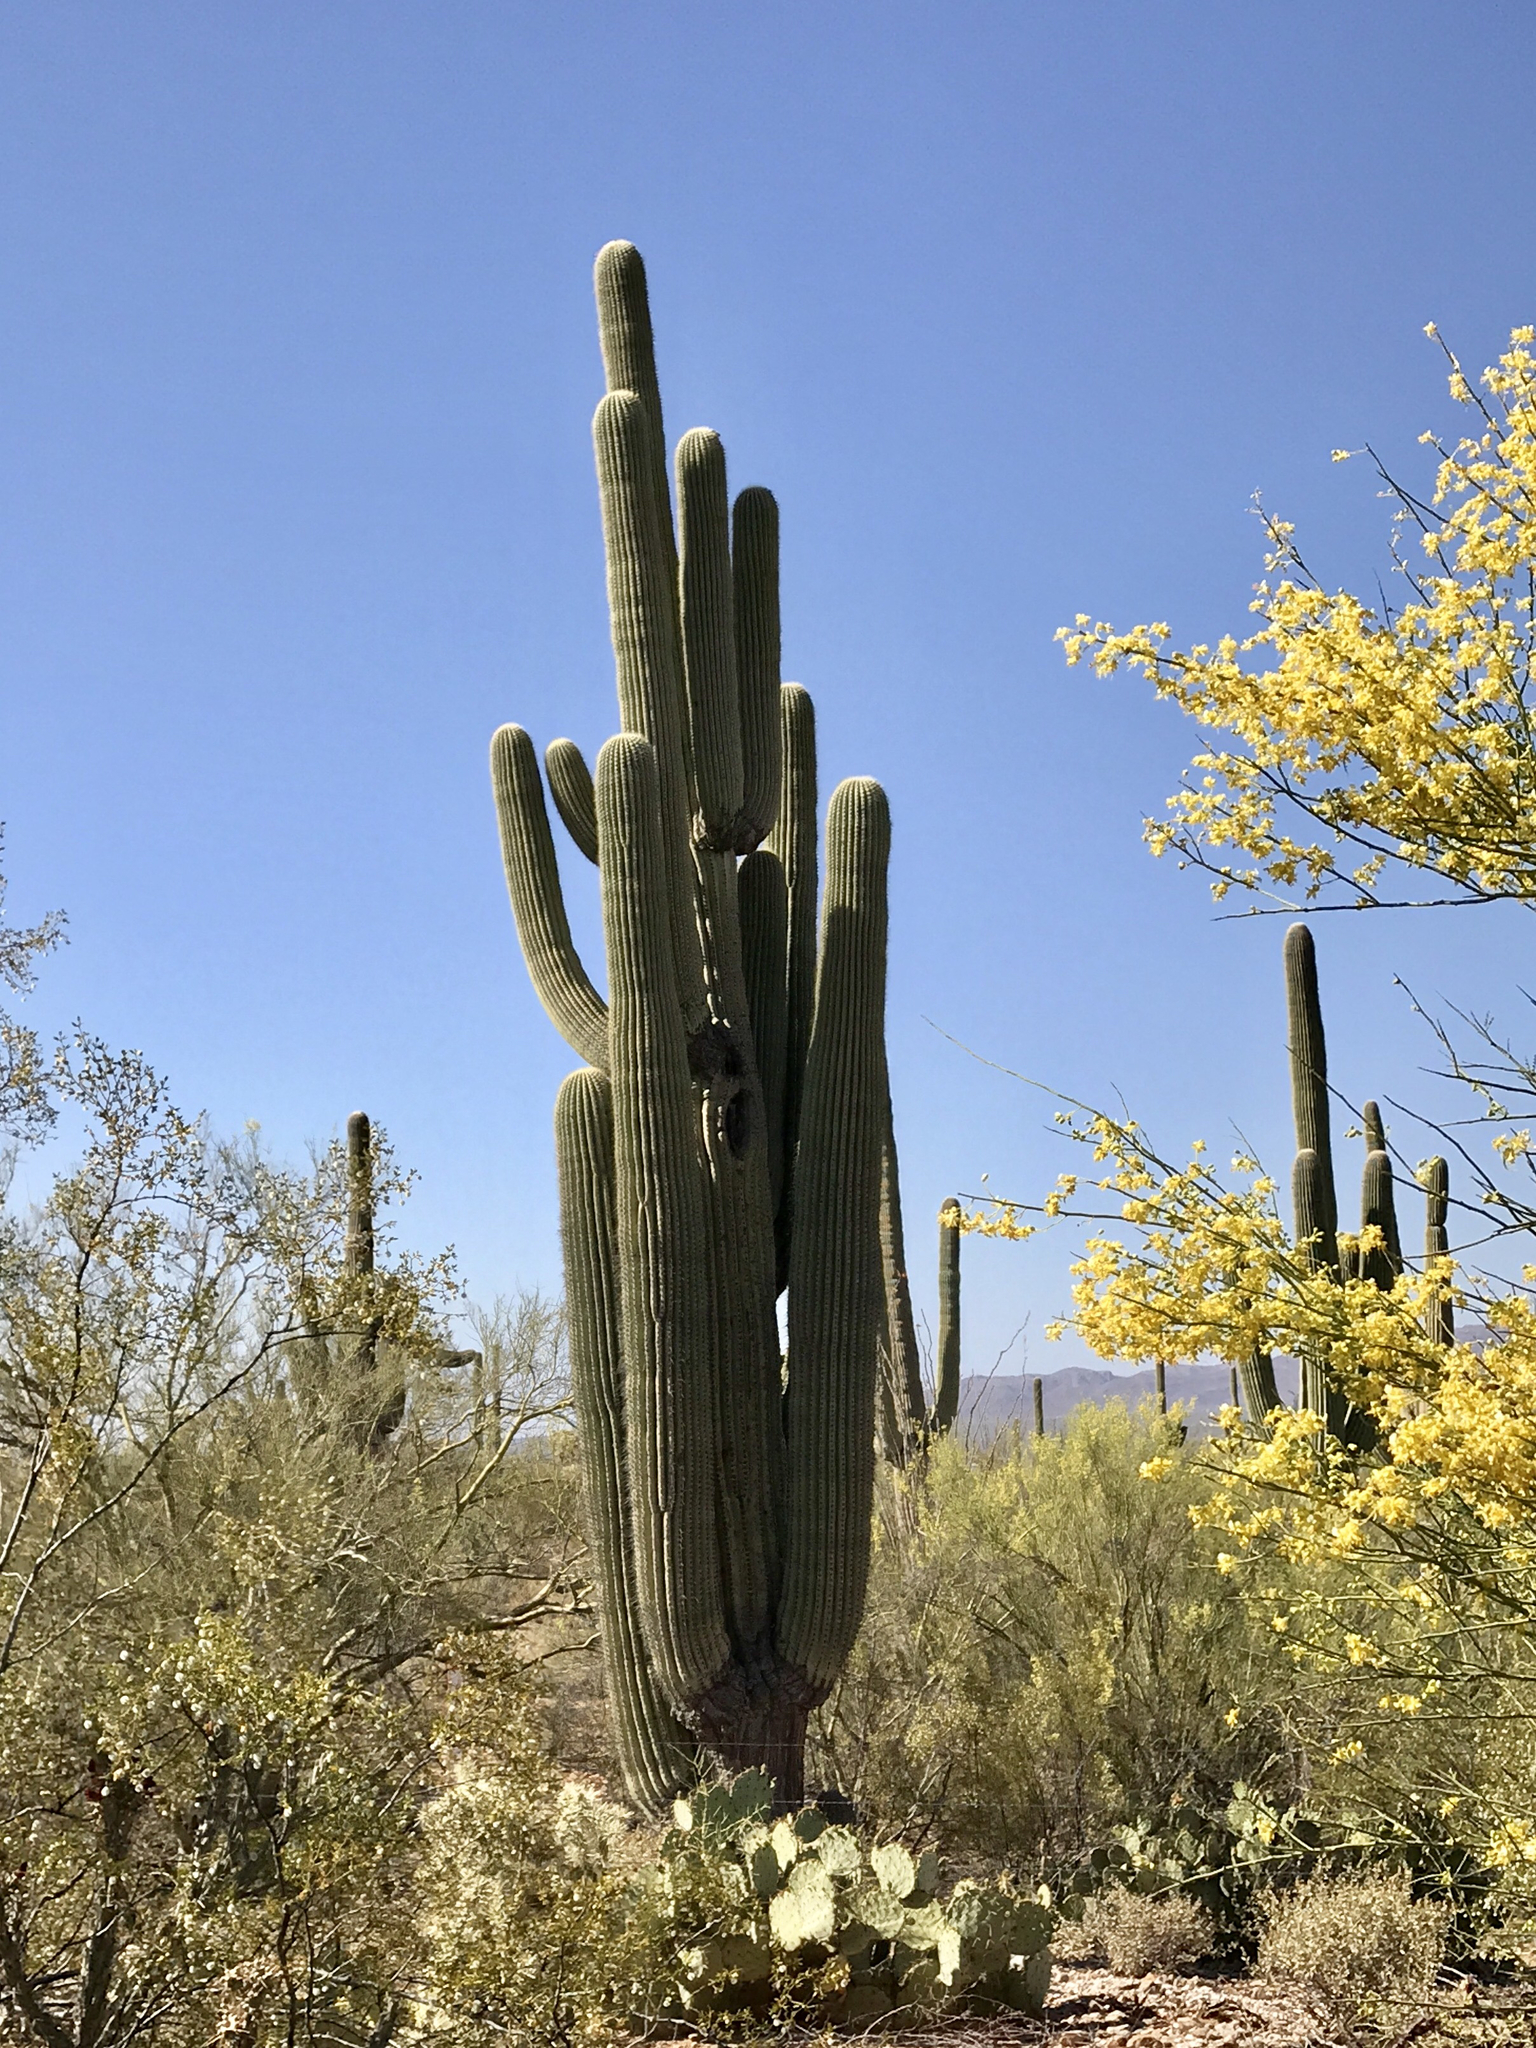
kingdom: Plantae
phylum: Tracheophyta
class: Magnoliopsida
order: Caryophyllales
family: Cactaceae
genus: Carnegiea
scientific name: Carnegiea gigantea
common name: Saguaro
